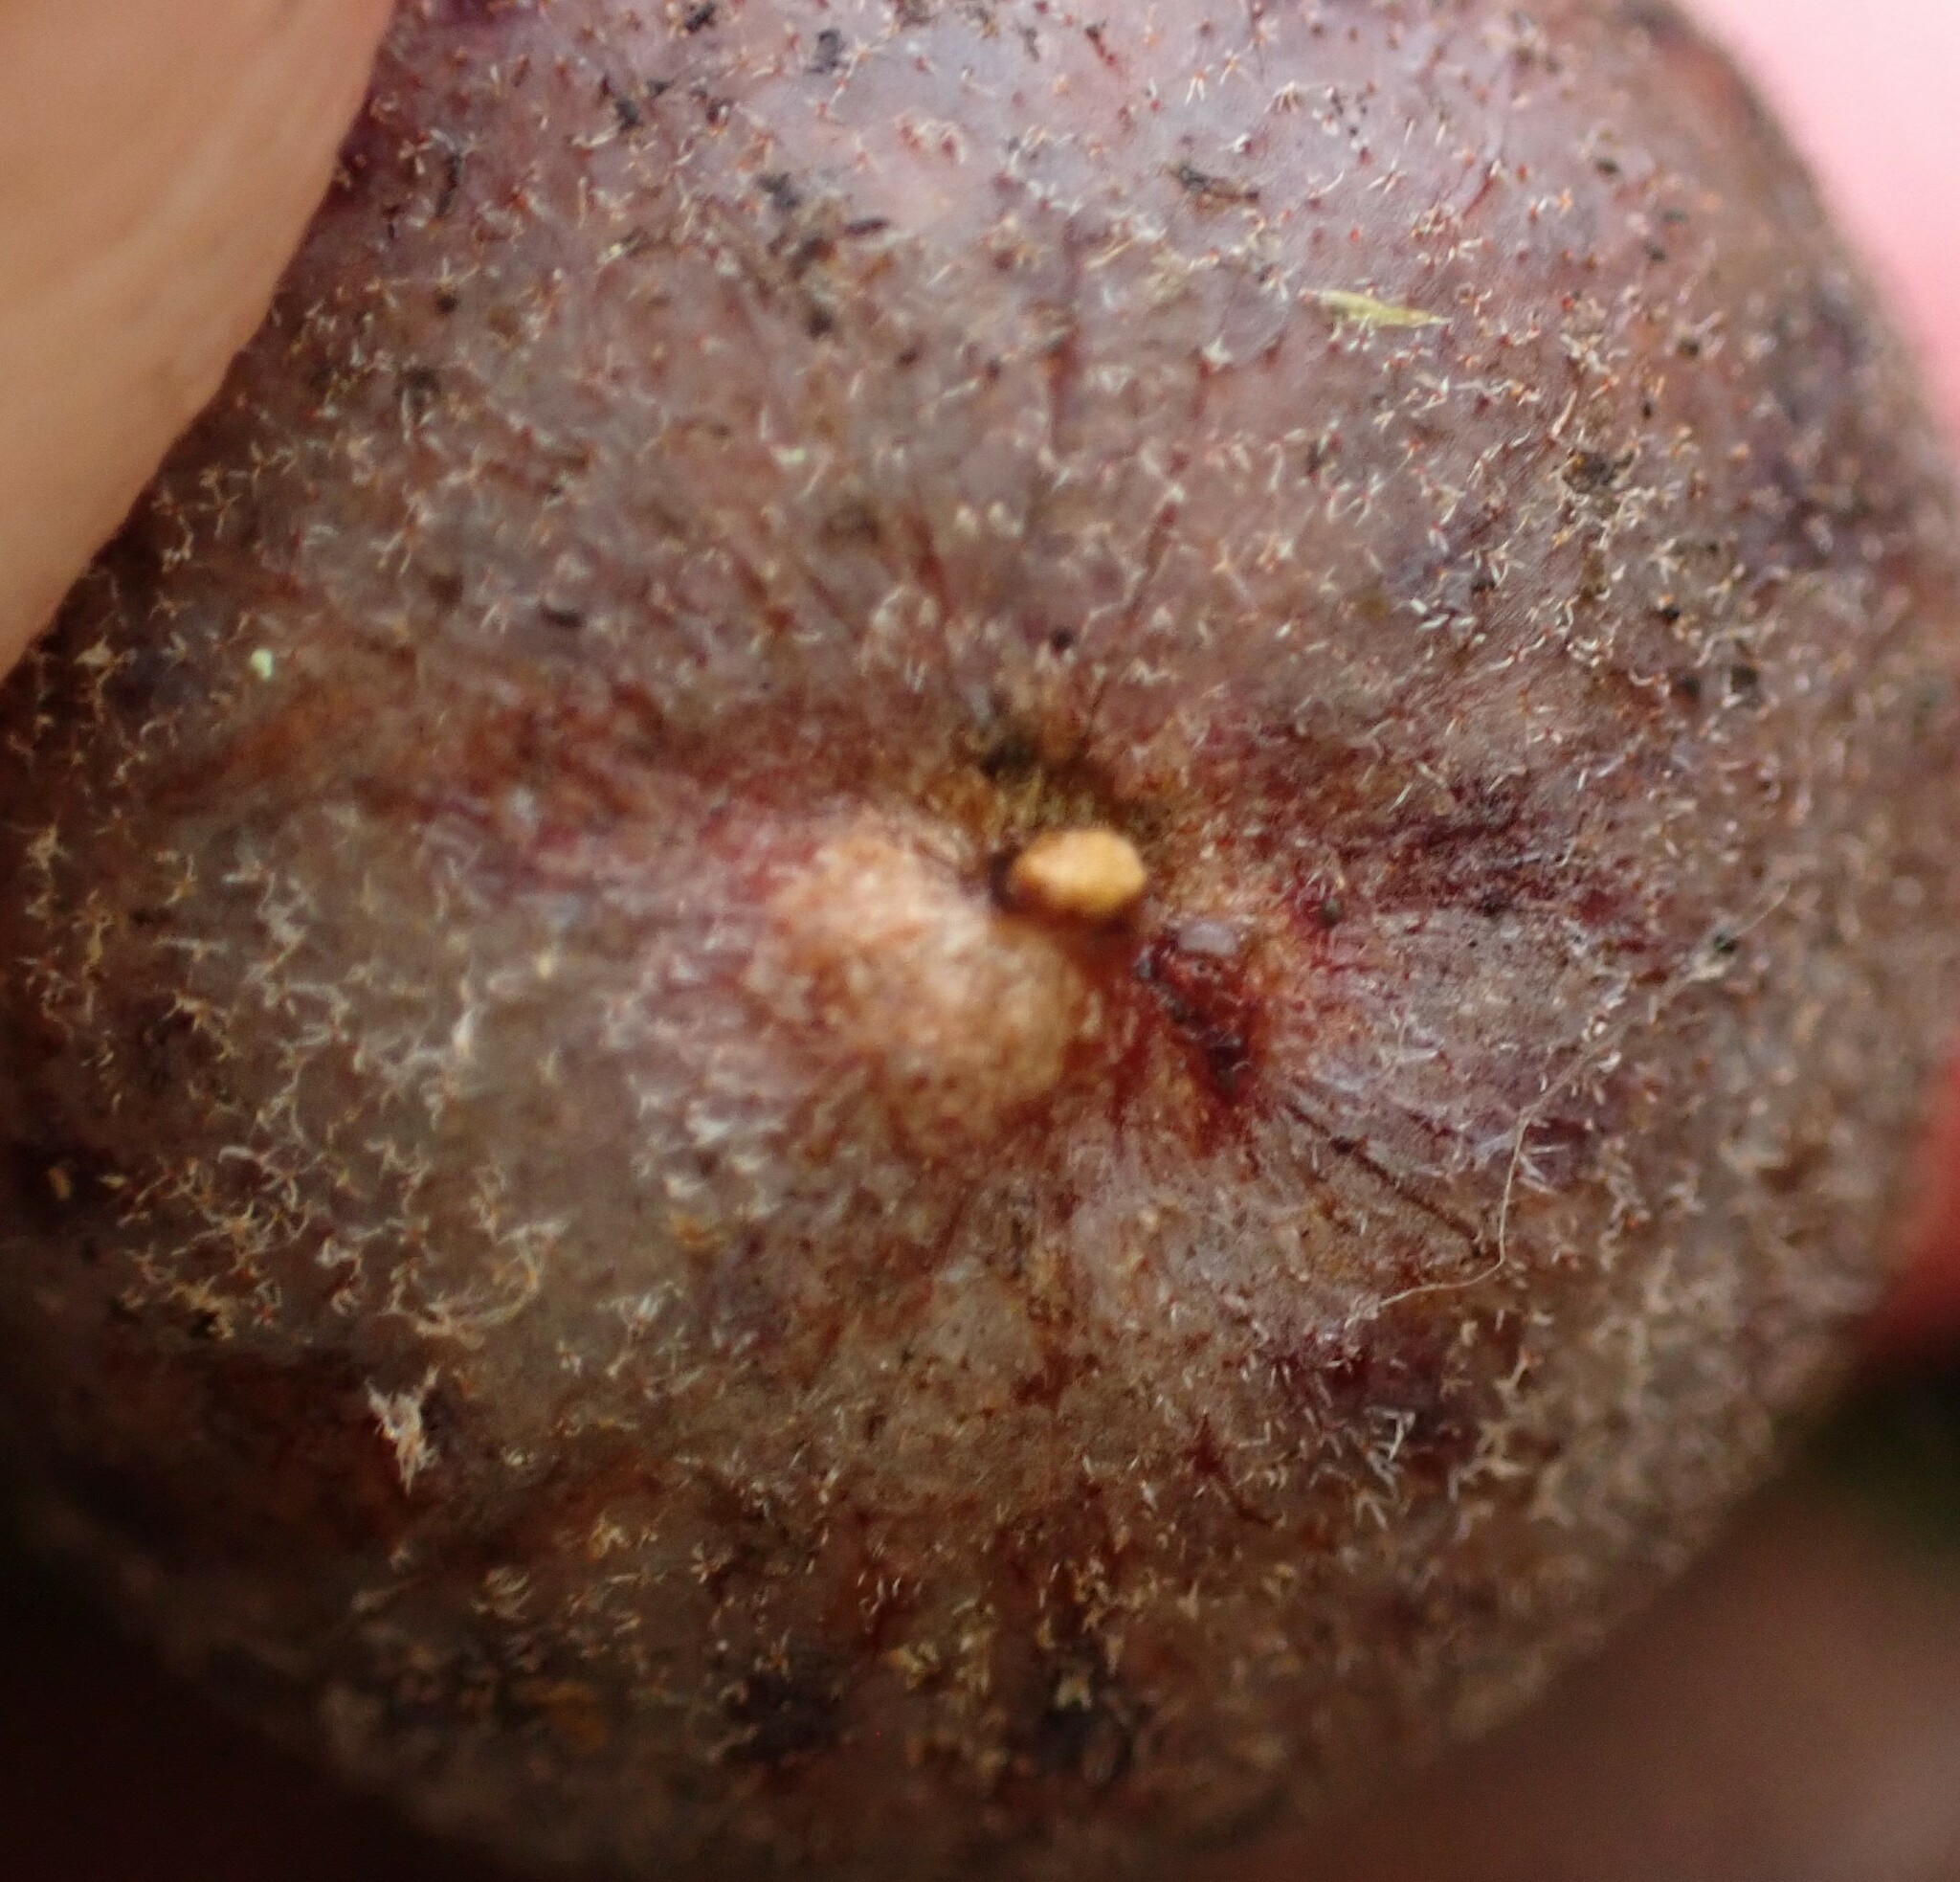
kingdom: Animalia
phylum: Arthropoda
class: Insecta
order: Hymenoptera
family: Cynipidae
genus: Cynips
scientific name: Cynips
